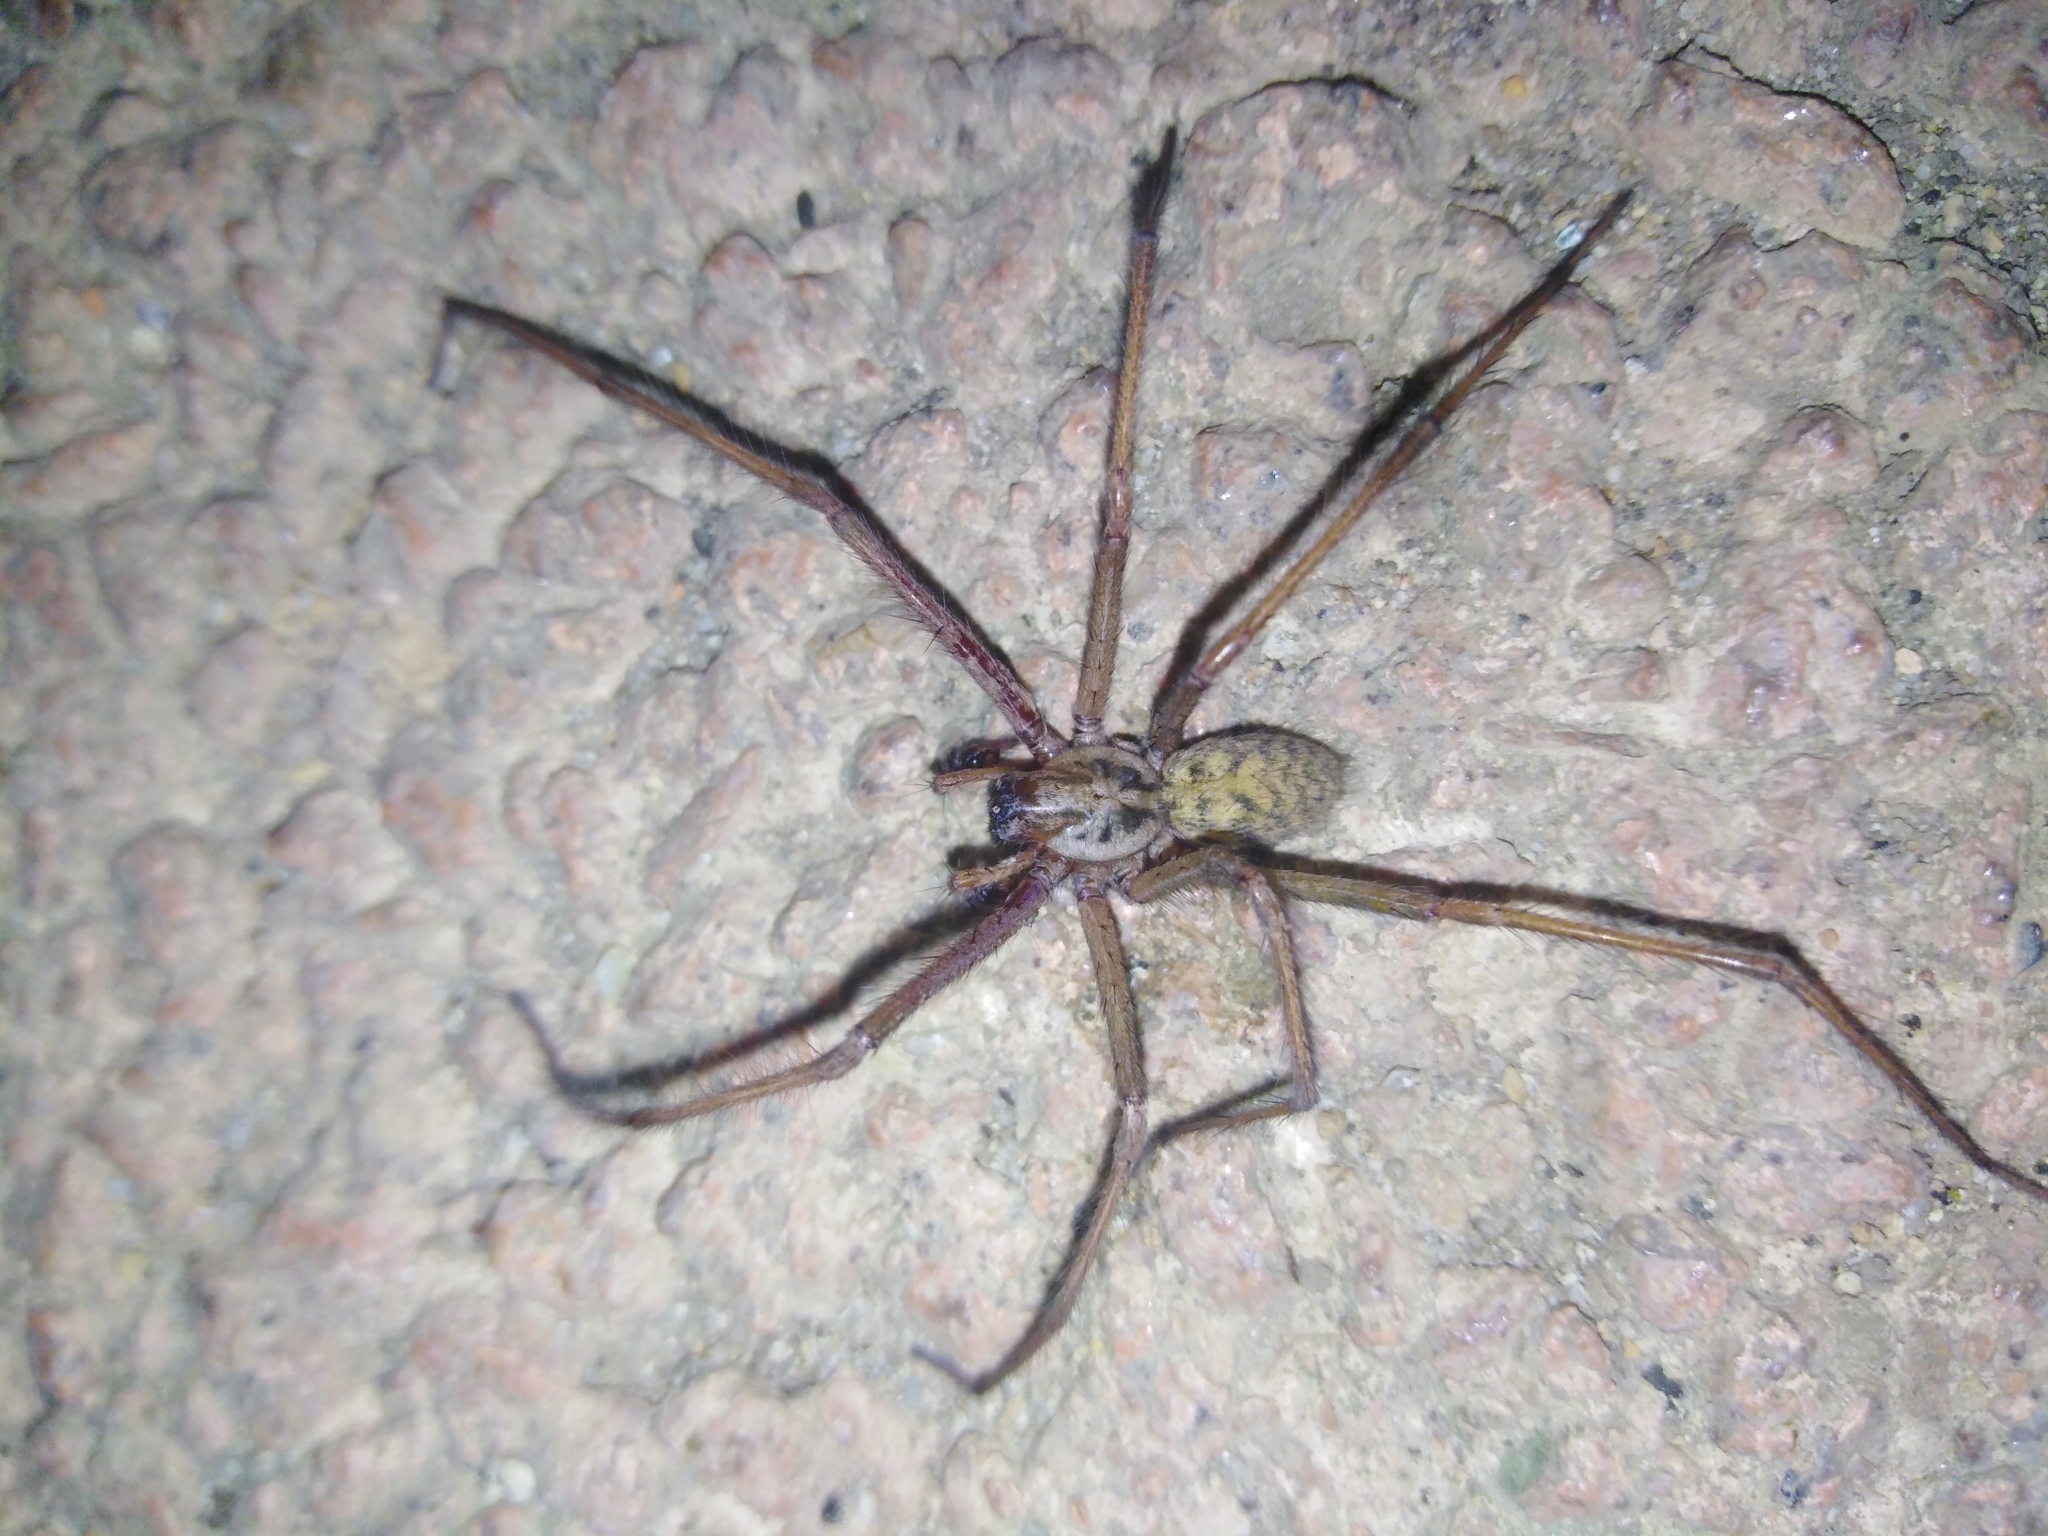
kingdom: Animalia
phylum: Arthropoda
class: Arachnida
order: Araneae
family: Agelenidae
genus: Eratigena
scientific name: Eratigena
